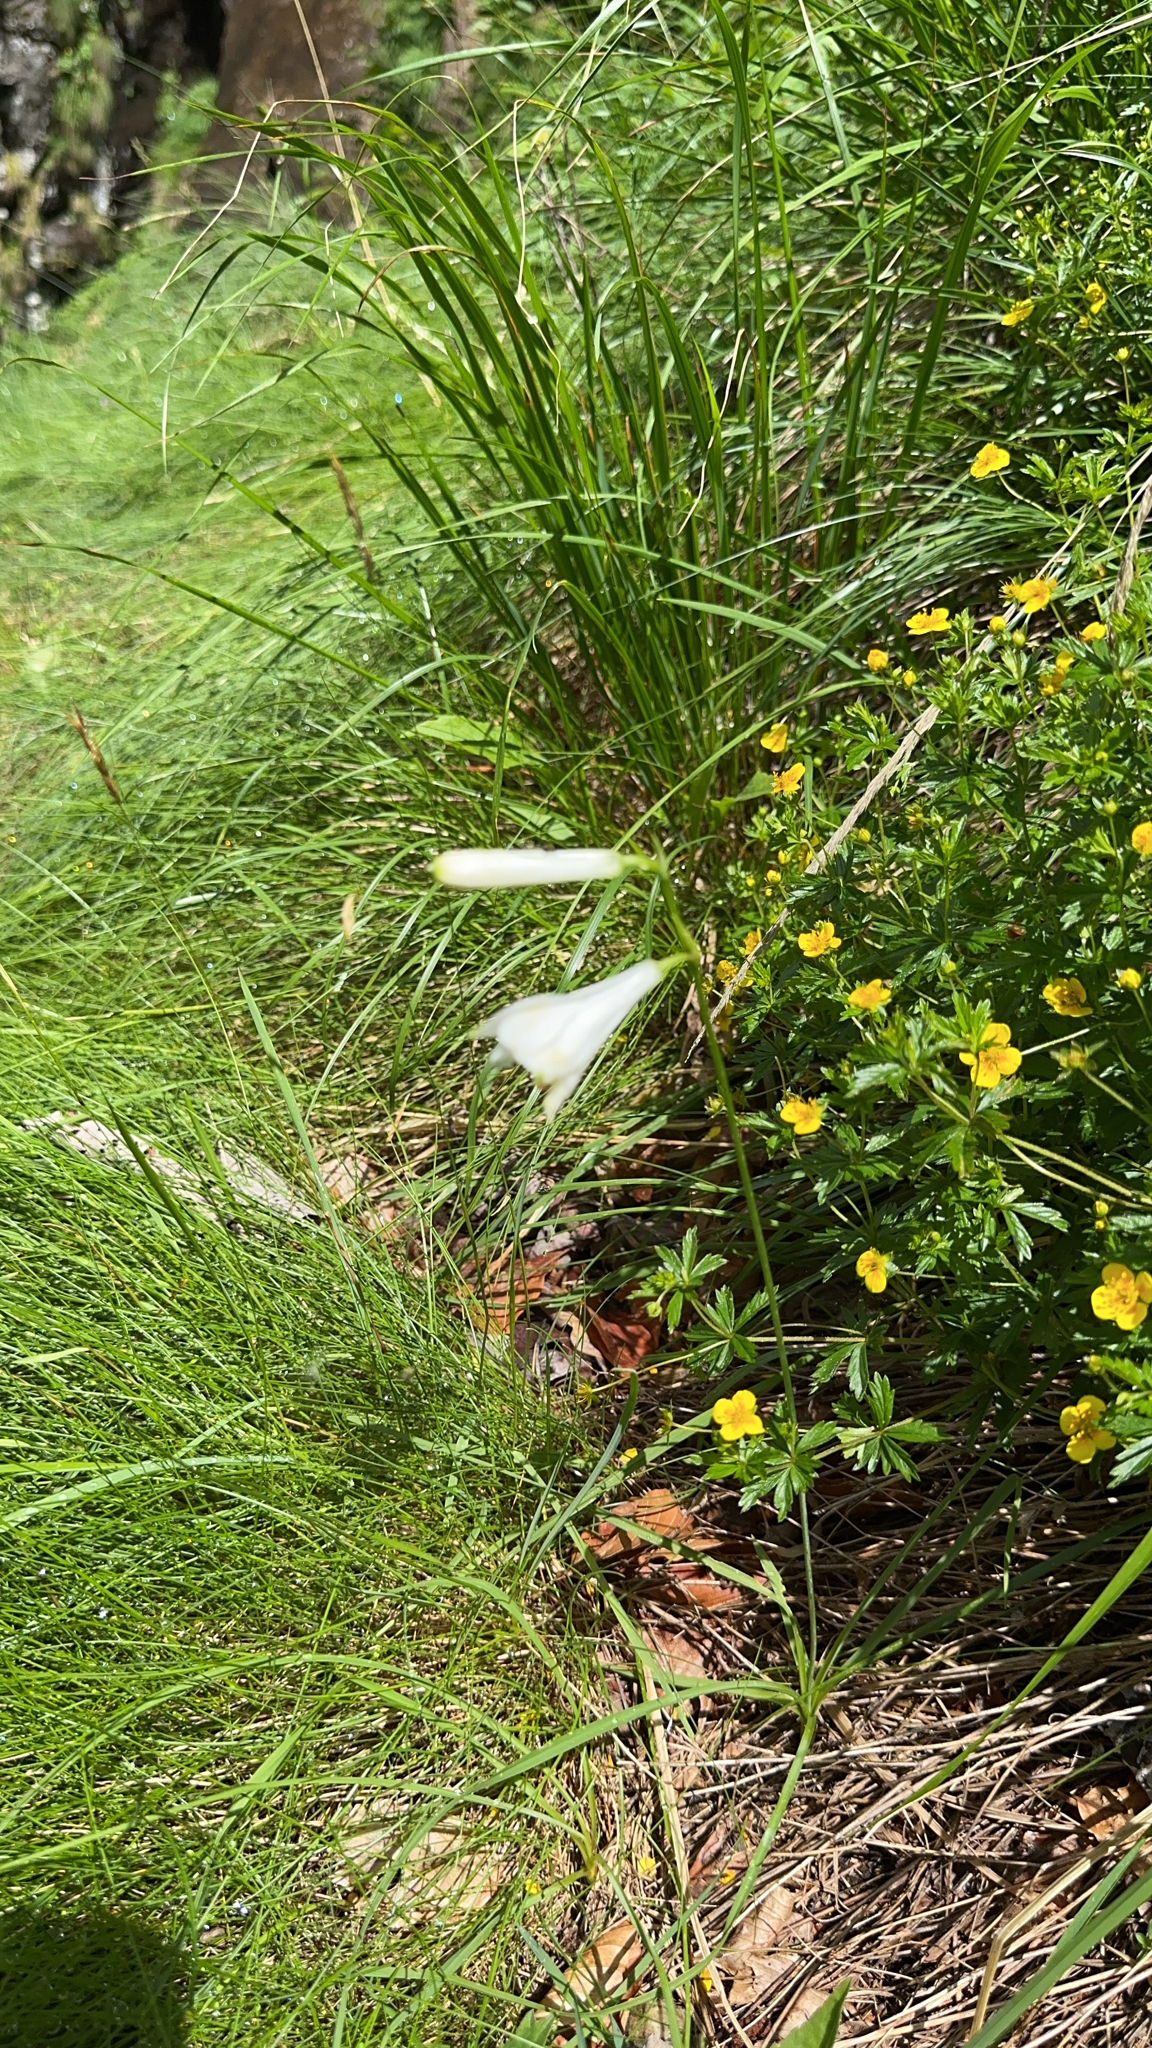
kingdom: Plantae
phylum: Tracheophyta
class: Liliopsida
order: Asparagales
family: Asparagaceae
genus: Paradisea
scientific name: Paradisea liliastrum
